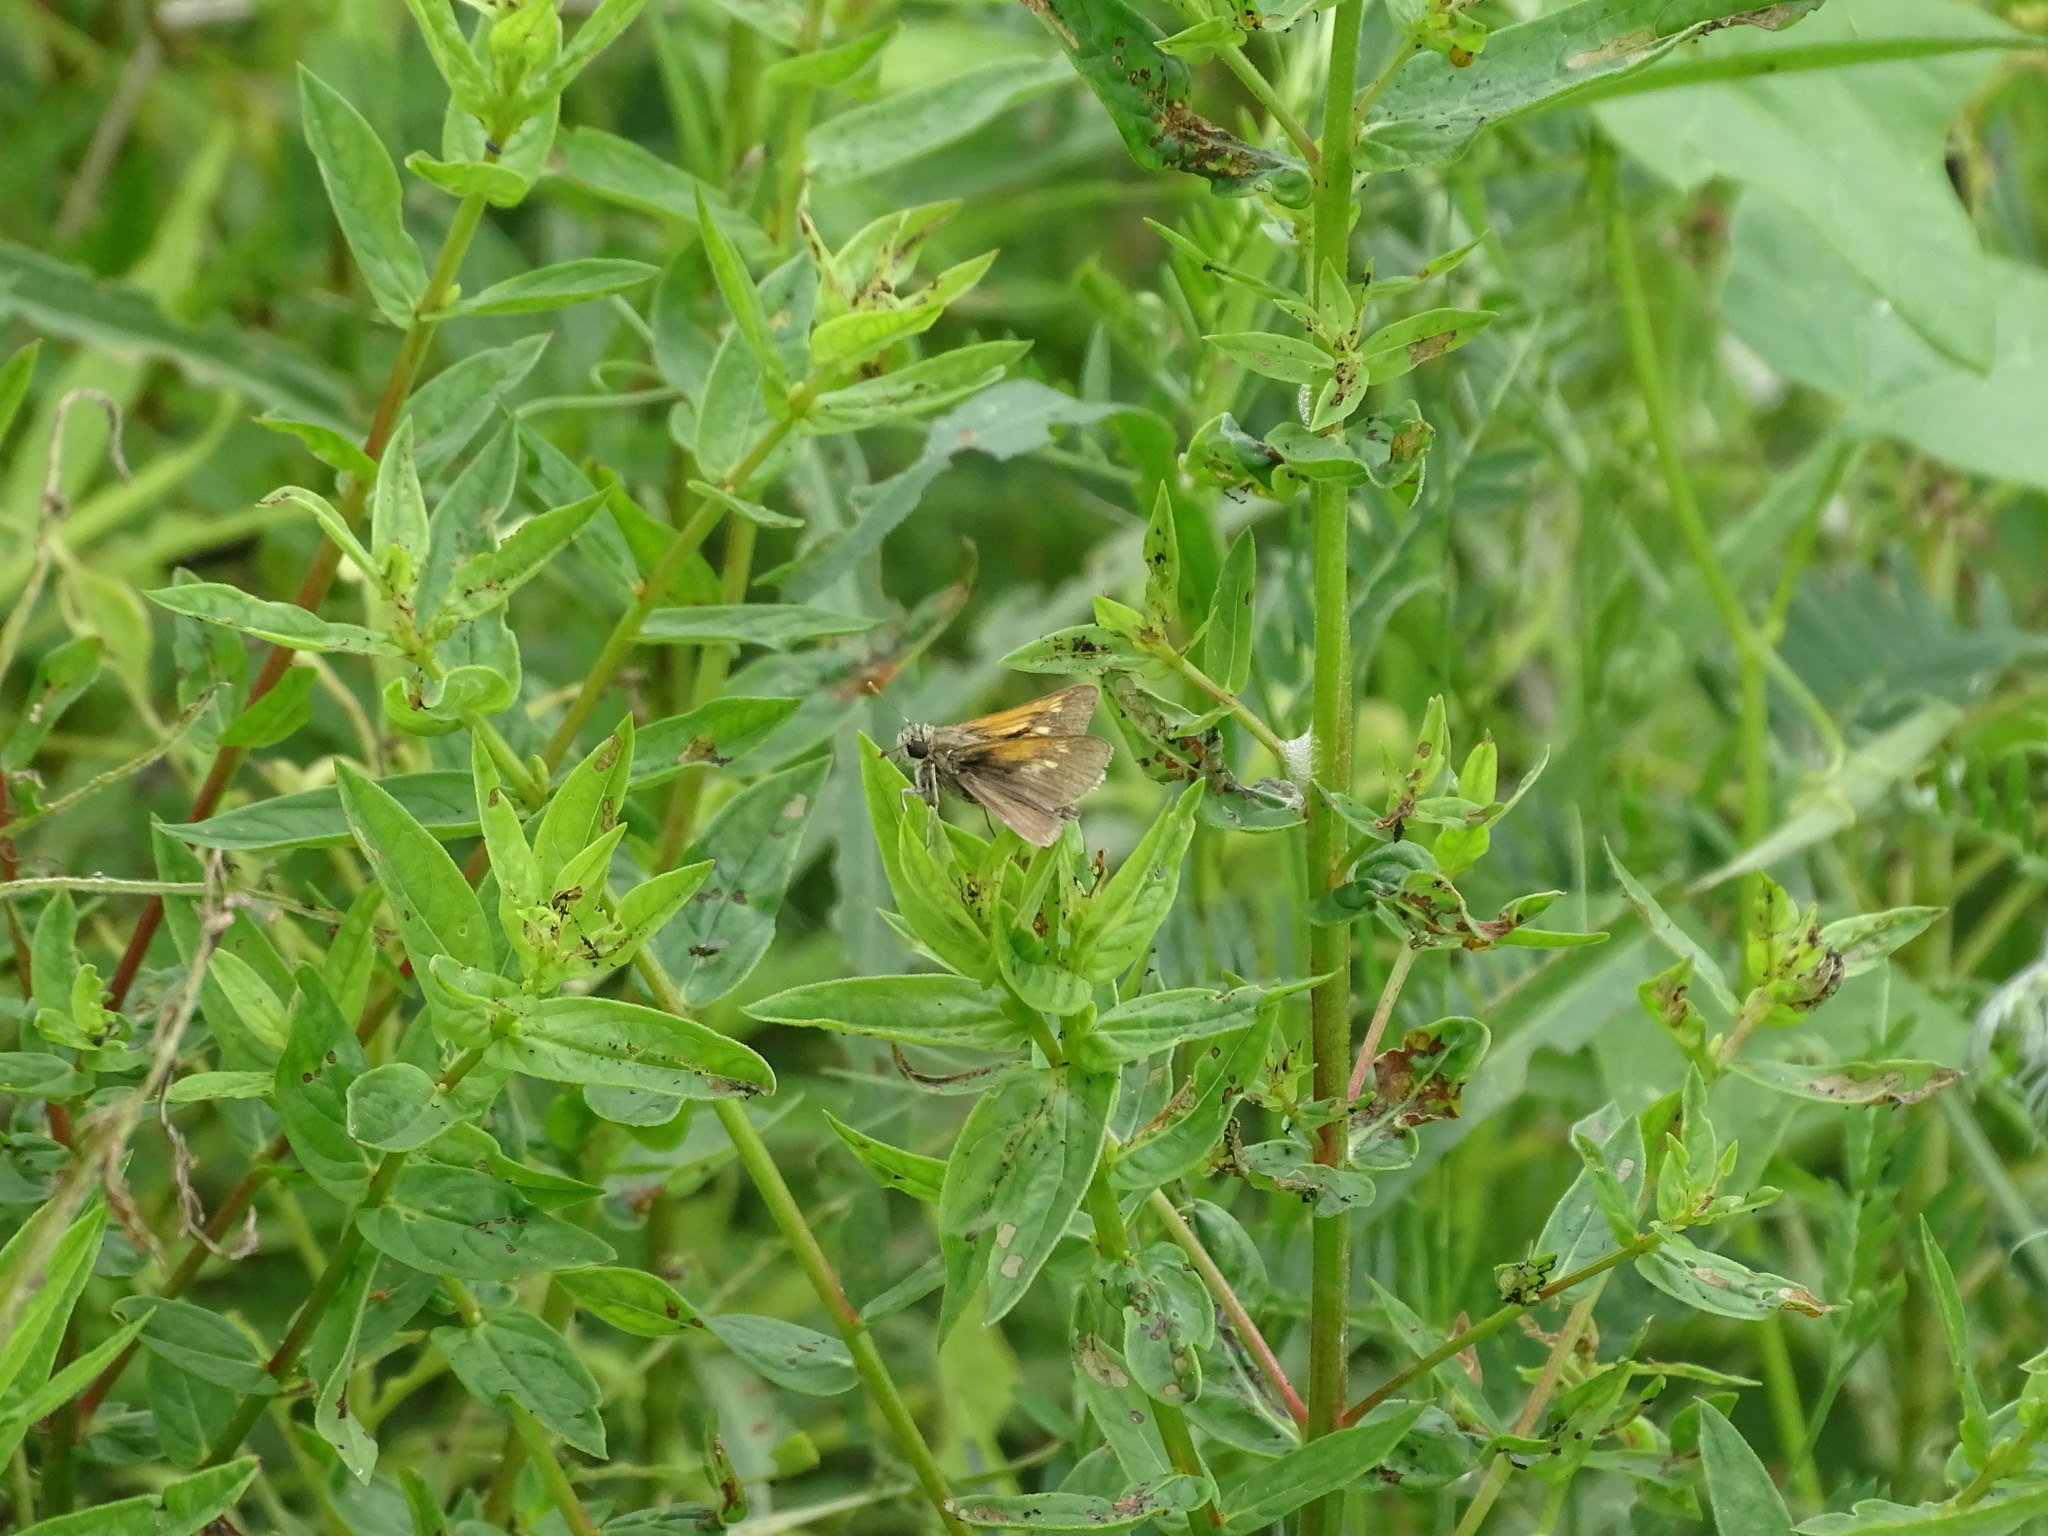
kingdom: Animalia
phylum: Arthropoda
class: Insecta
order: Lepidoptera
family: Hesperiidae
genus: Polites
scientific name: Polites themistocles
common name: Tawny-edged skipper
